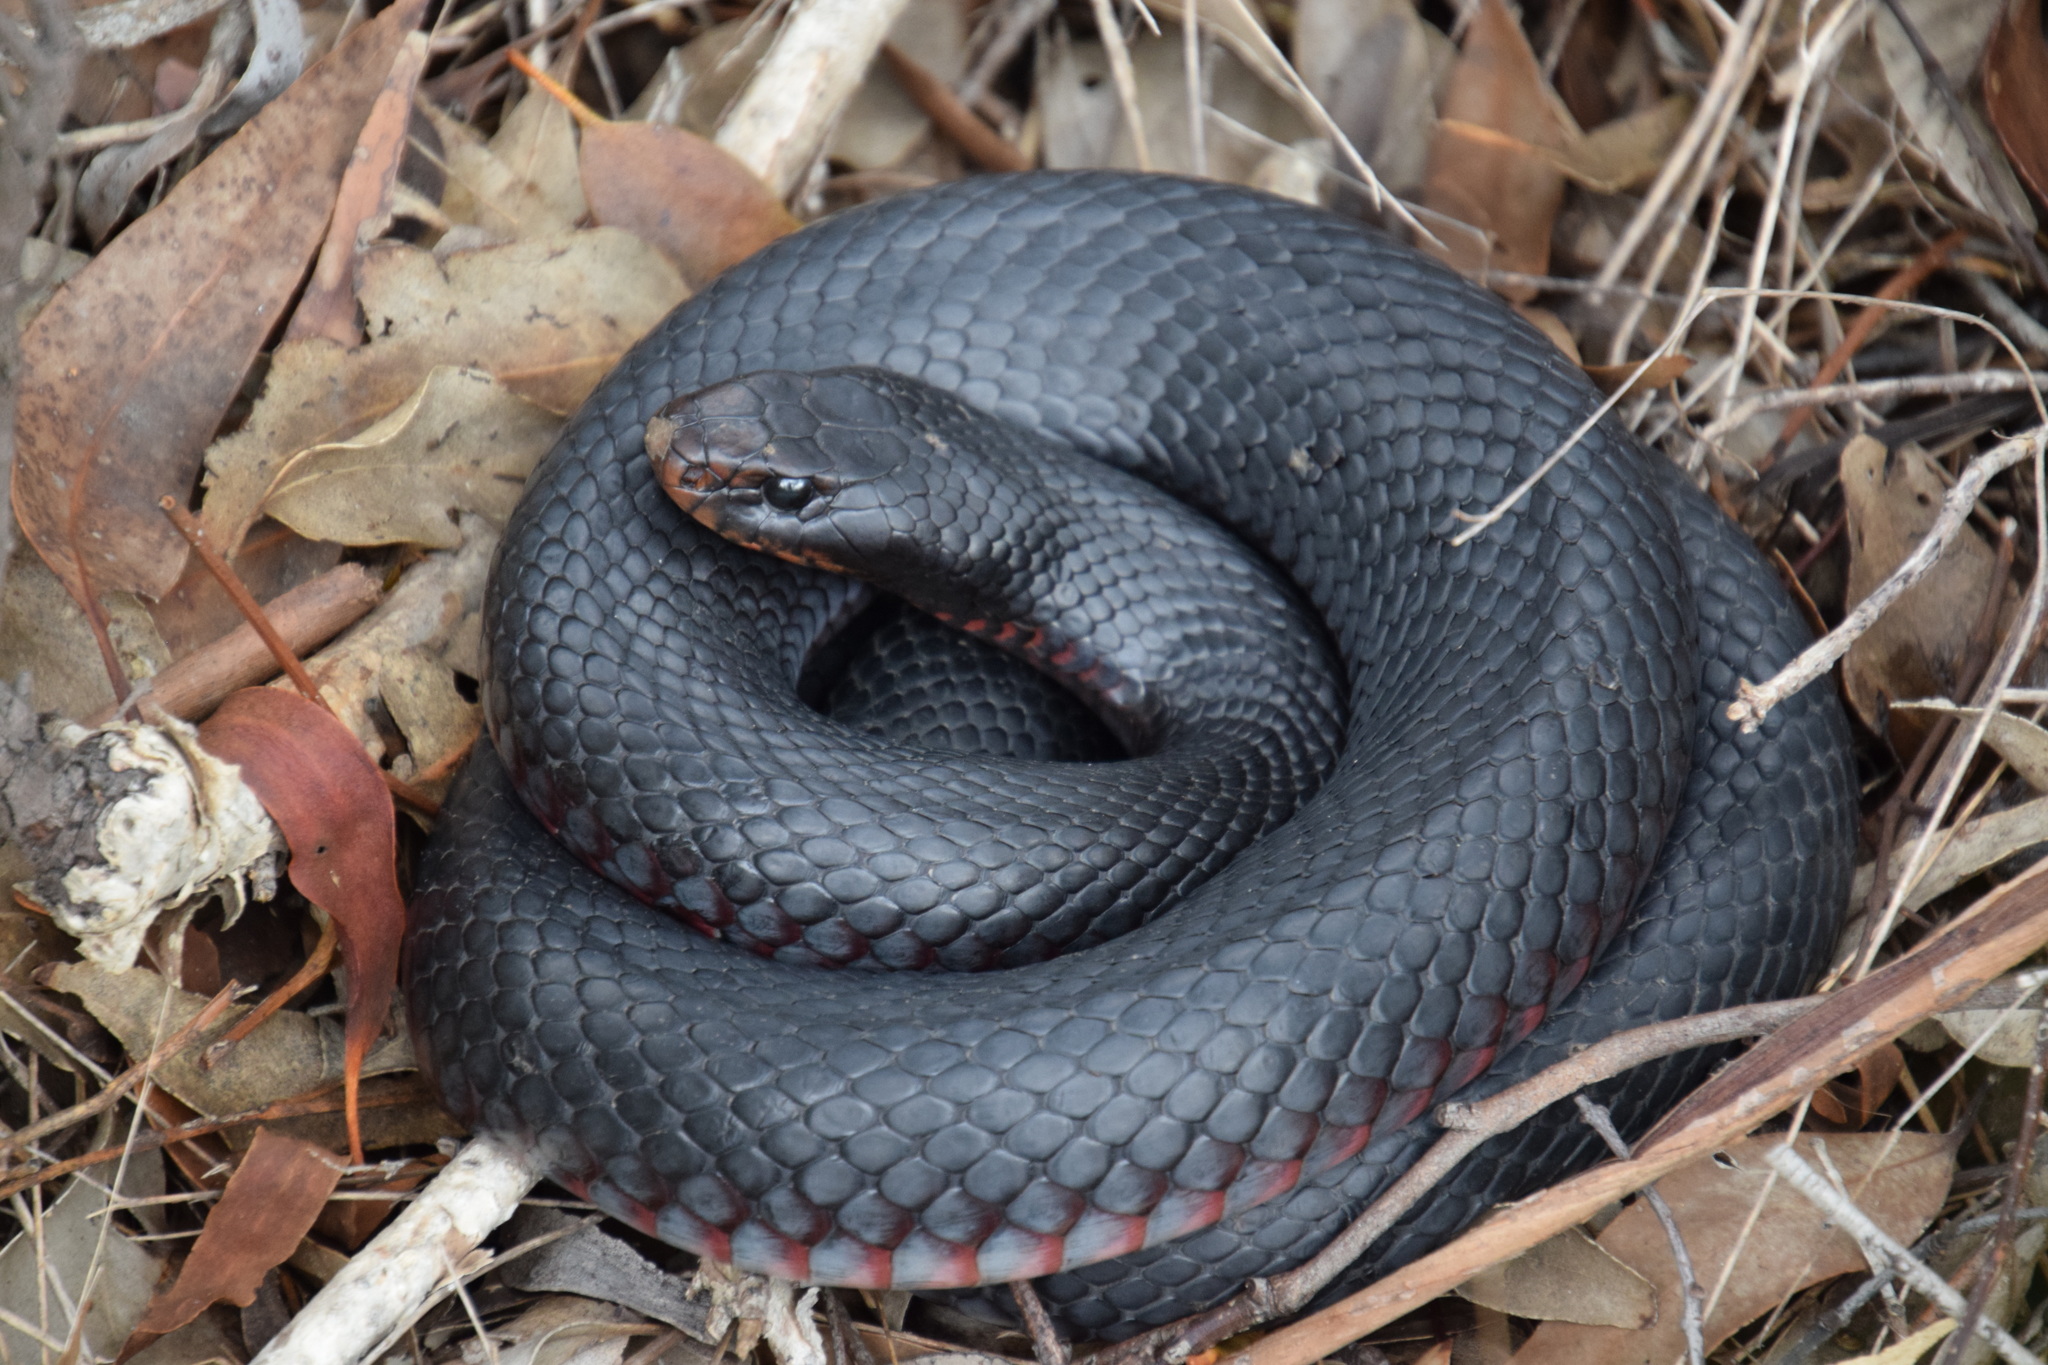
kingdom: Animalia
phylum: Chordata
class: Squamata
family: Elapidae
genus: Pseudechis
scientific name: Pseudechis porphyriacus
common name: Australian black snake
